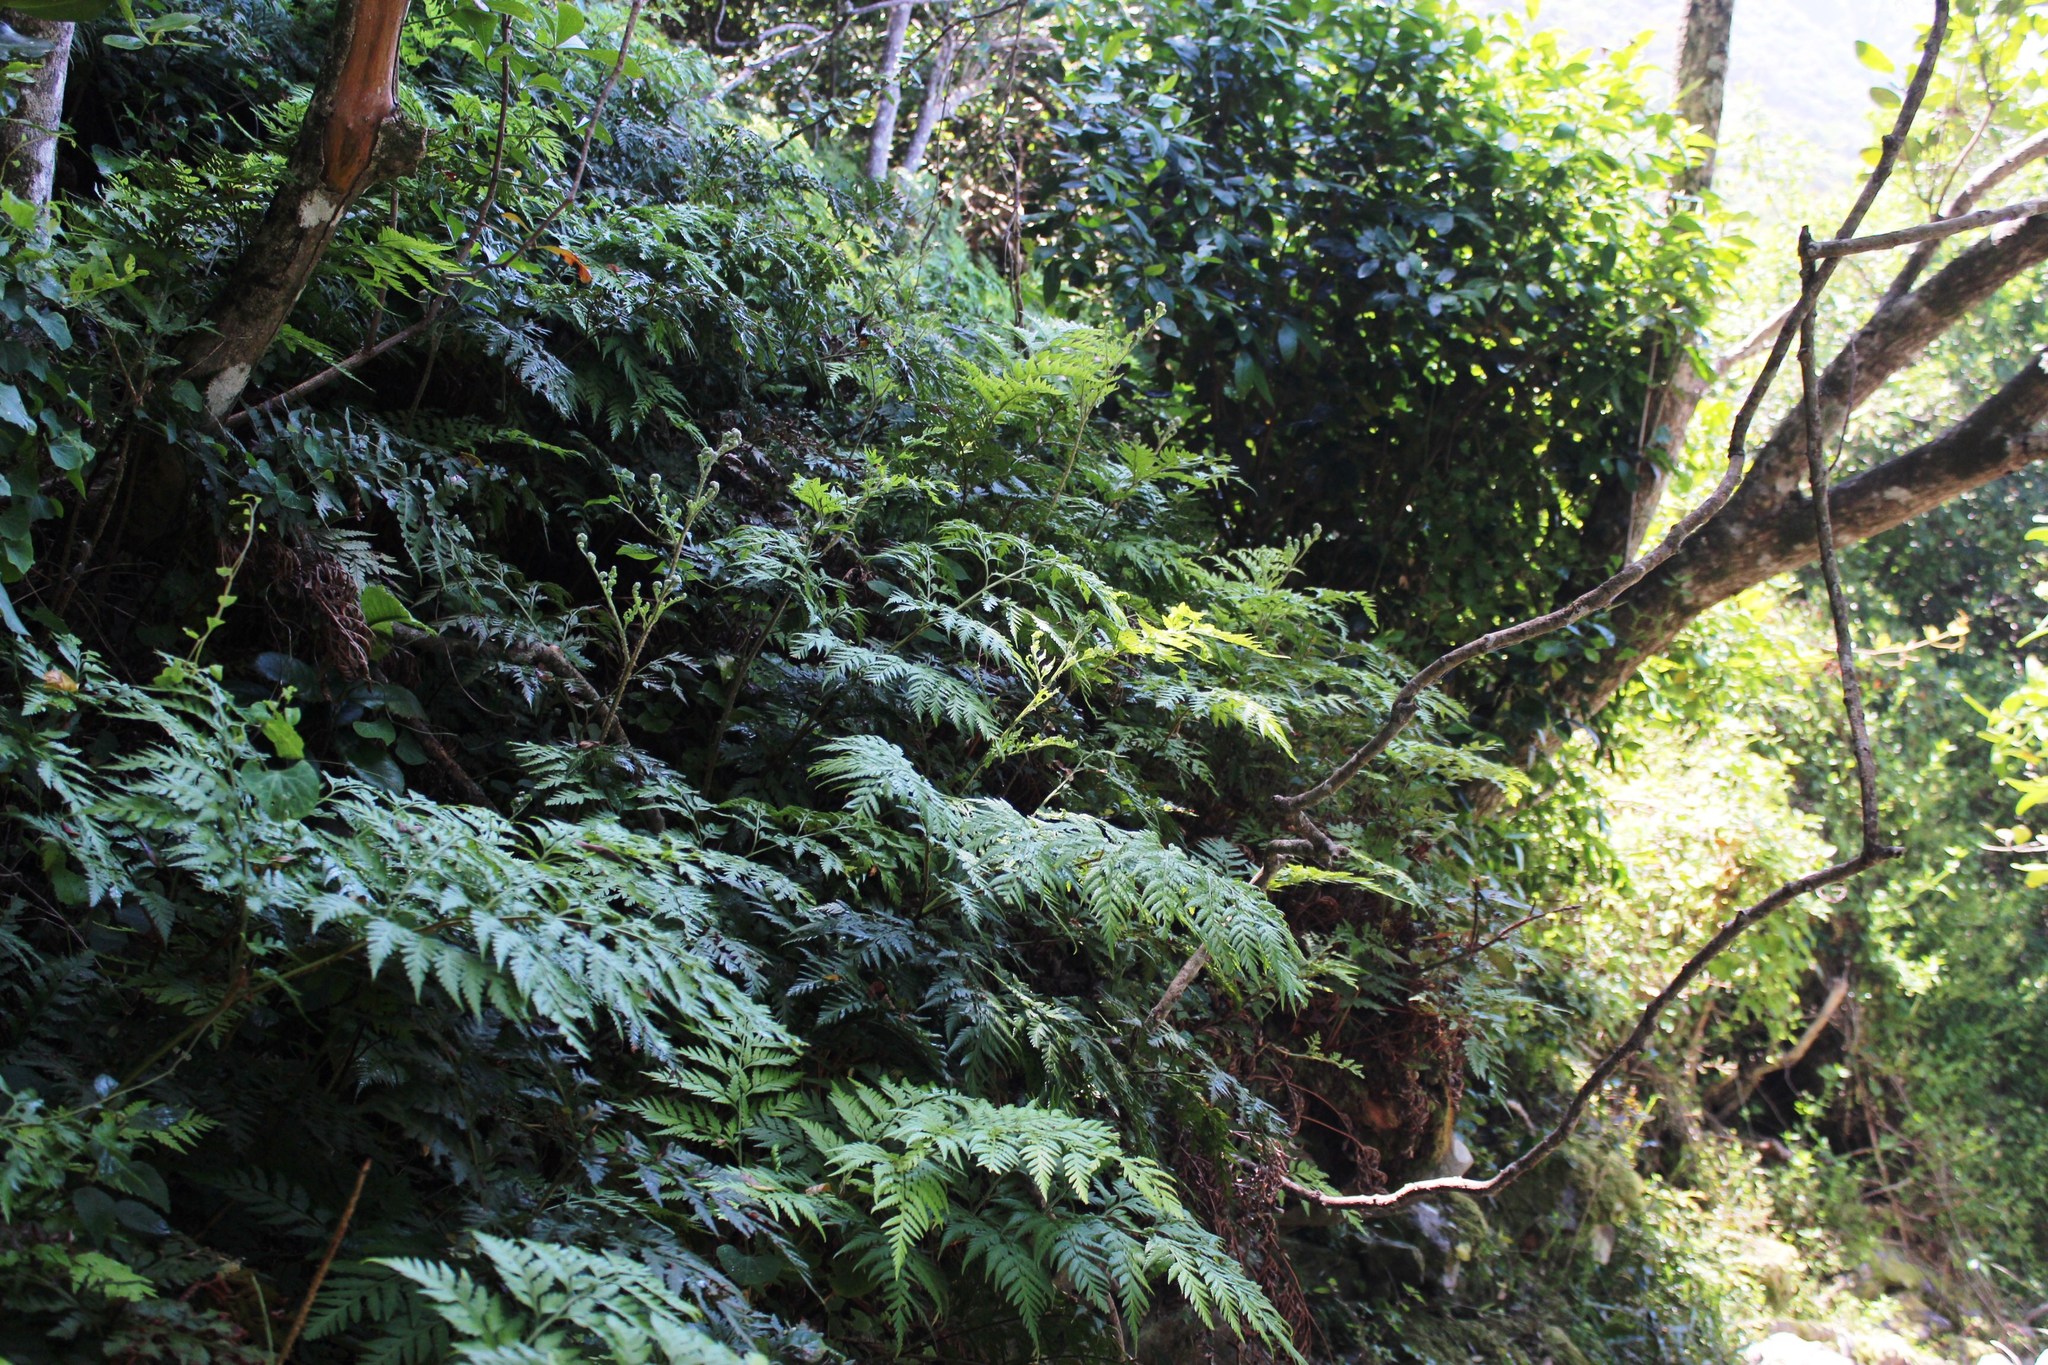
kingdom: Plantae
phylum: Tracheophyta
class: Polypodiopsida
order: Polypodiales
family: Dryopteridaceae
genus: Rumohra
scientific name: Rumohra adiantiformis
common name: Leather fern
